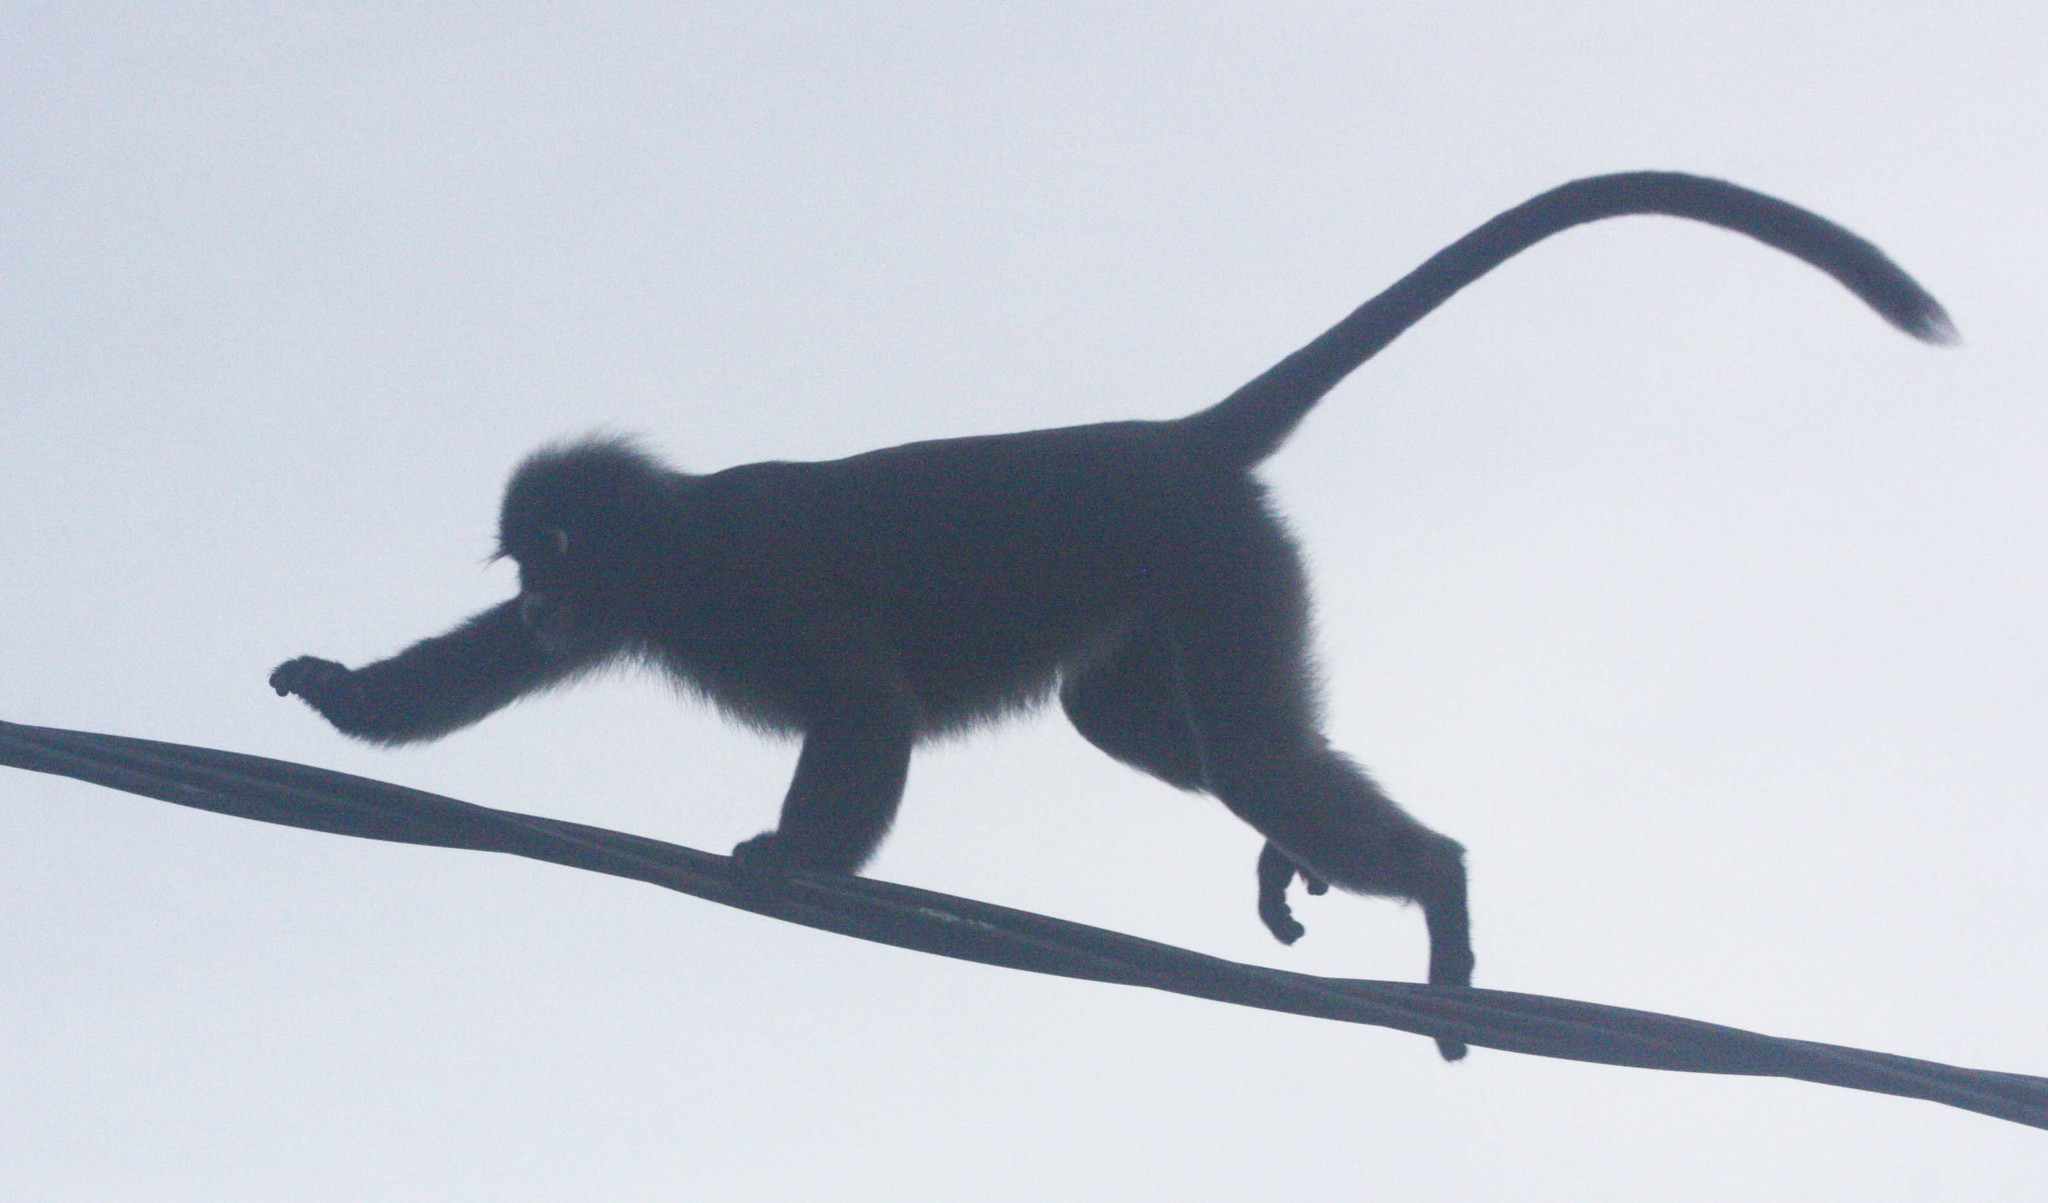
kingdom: Animalia
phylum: Chordata
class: Mammalia
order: Primates
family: Cercopithecidae
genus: Trachypithecus
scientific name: Trachypithecus obscurus
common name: Dusky leaf-monkey
